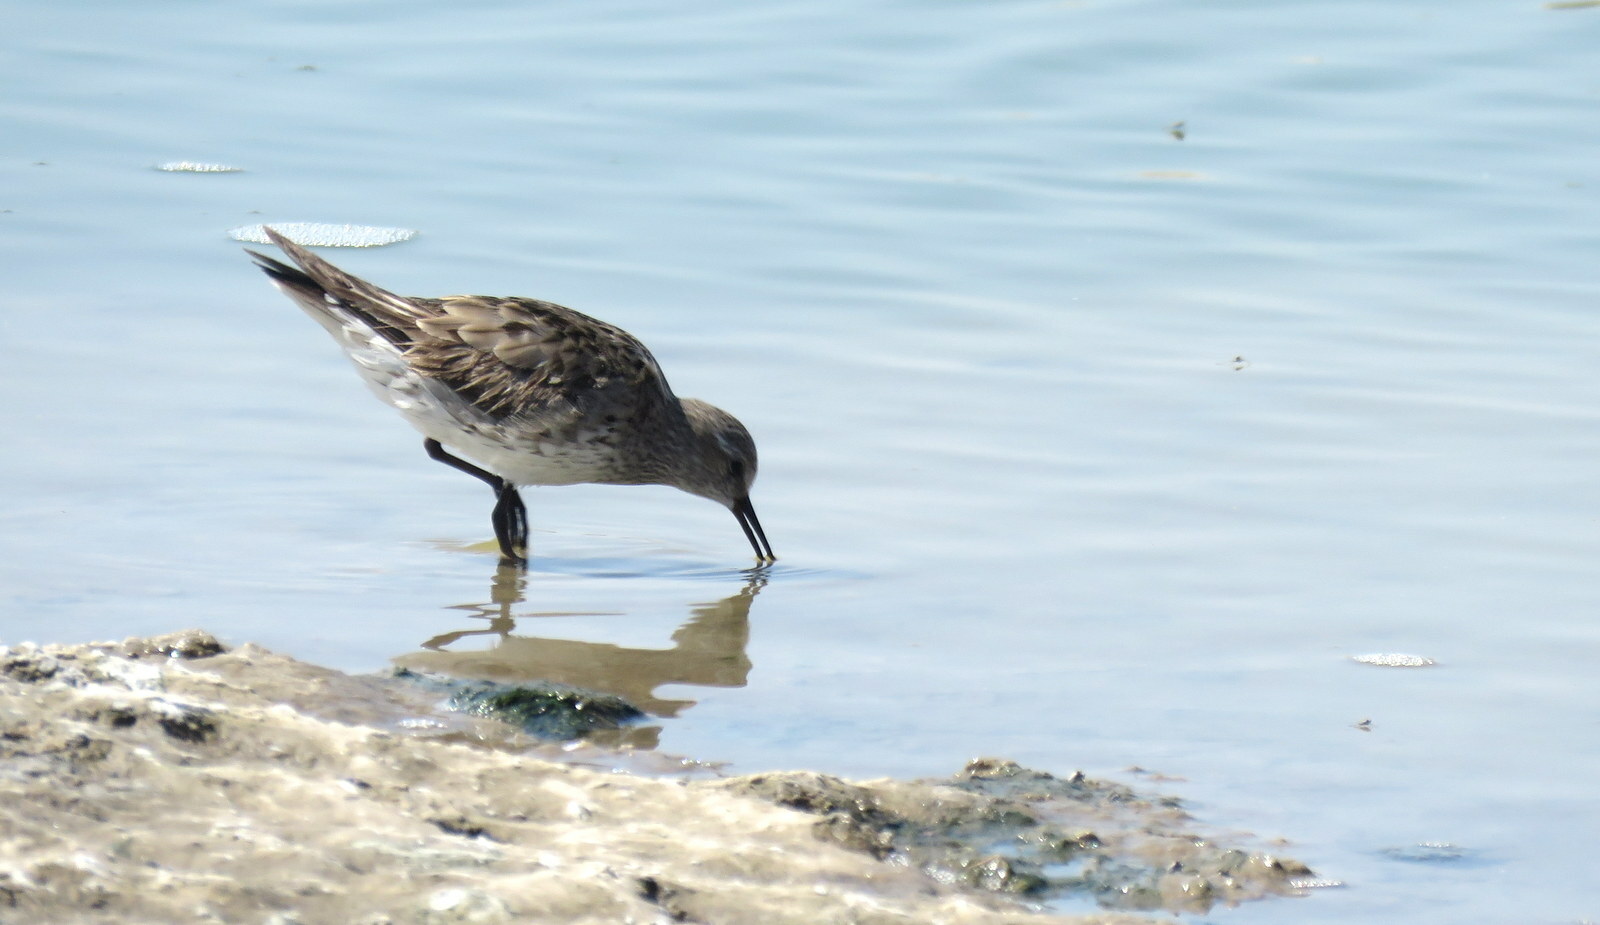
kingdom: Animalia
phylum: Chordata
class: Aves
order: Charadriiformes
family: Scolopacidae
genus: Calidris
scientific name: Calidris fuscicollis
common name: White-rumped sandpiper
